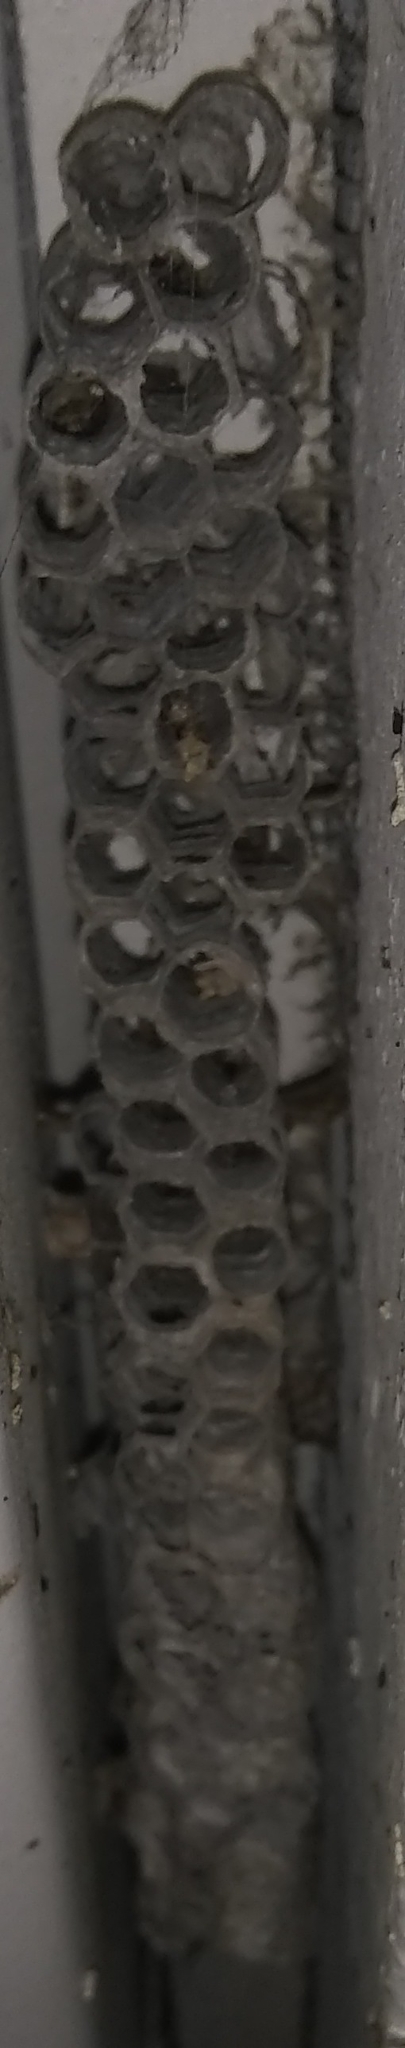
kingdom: Animalia
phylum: Arthropoda
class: Insecta
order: Hymenoptera
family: Vespidae
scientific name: Vespidae
